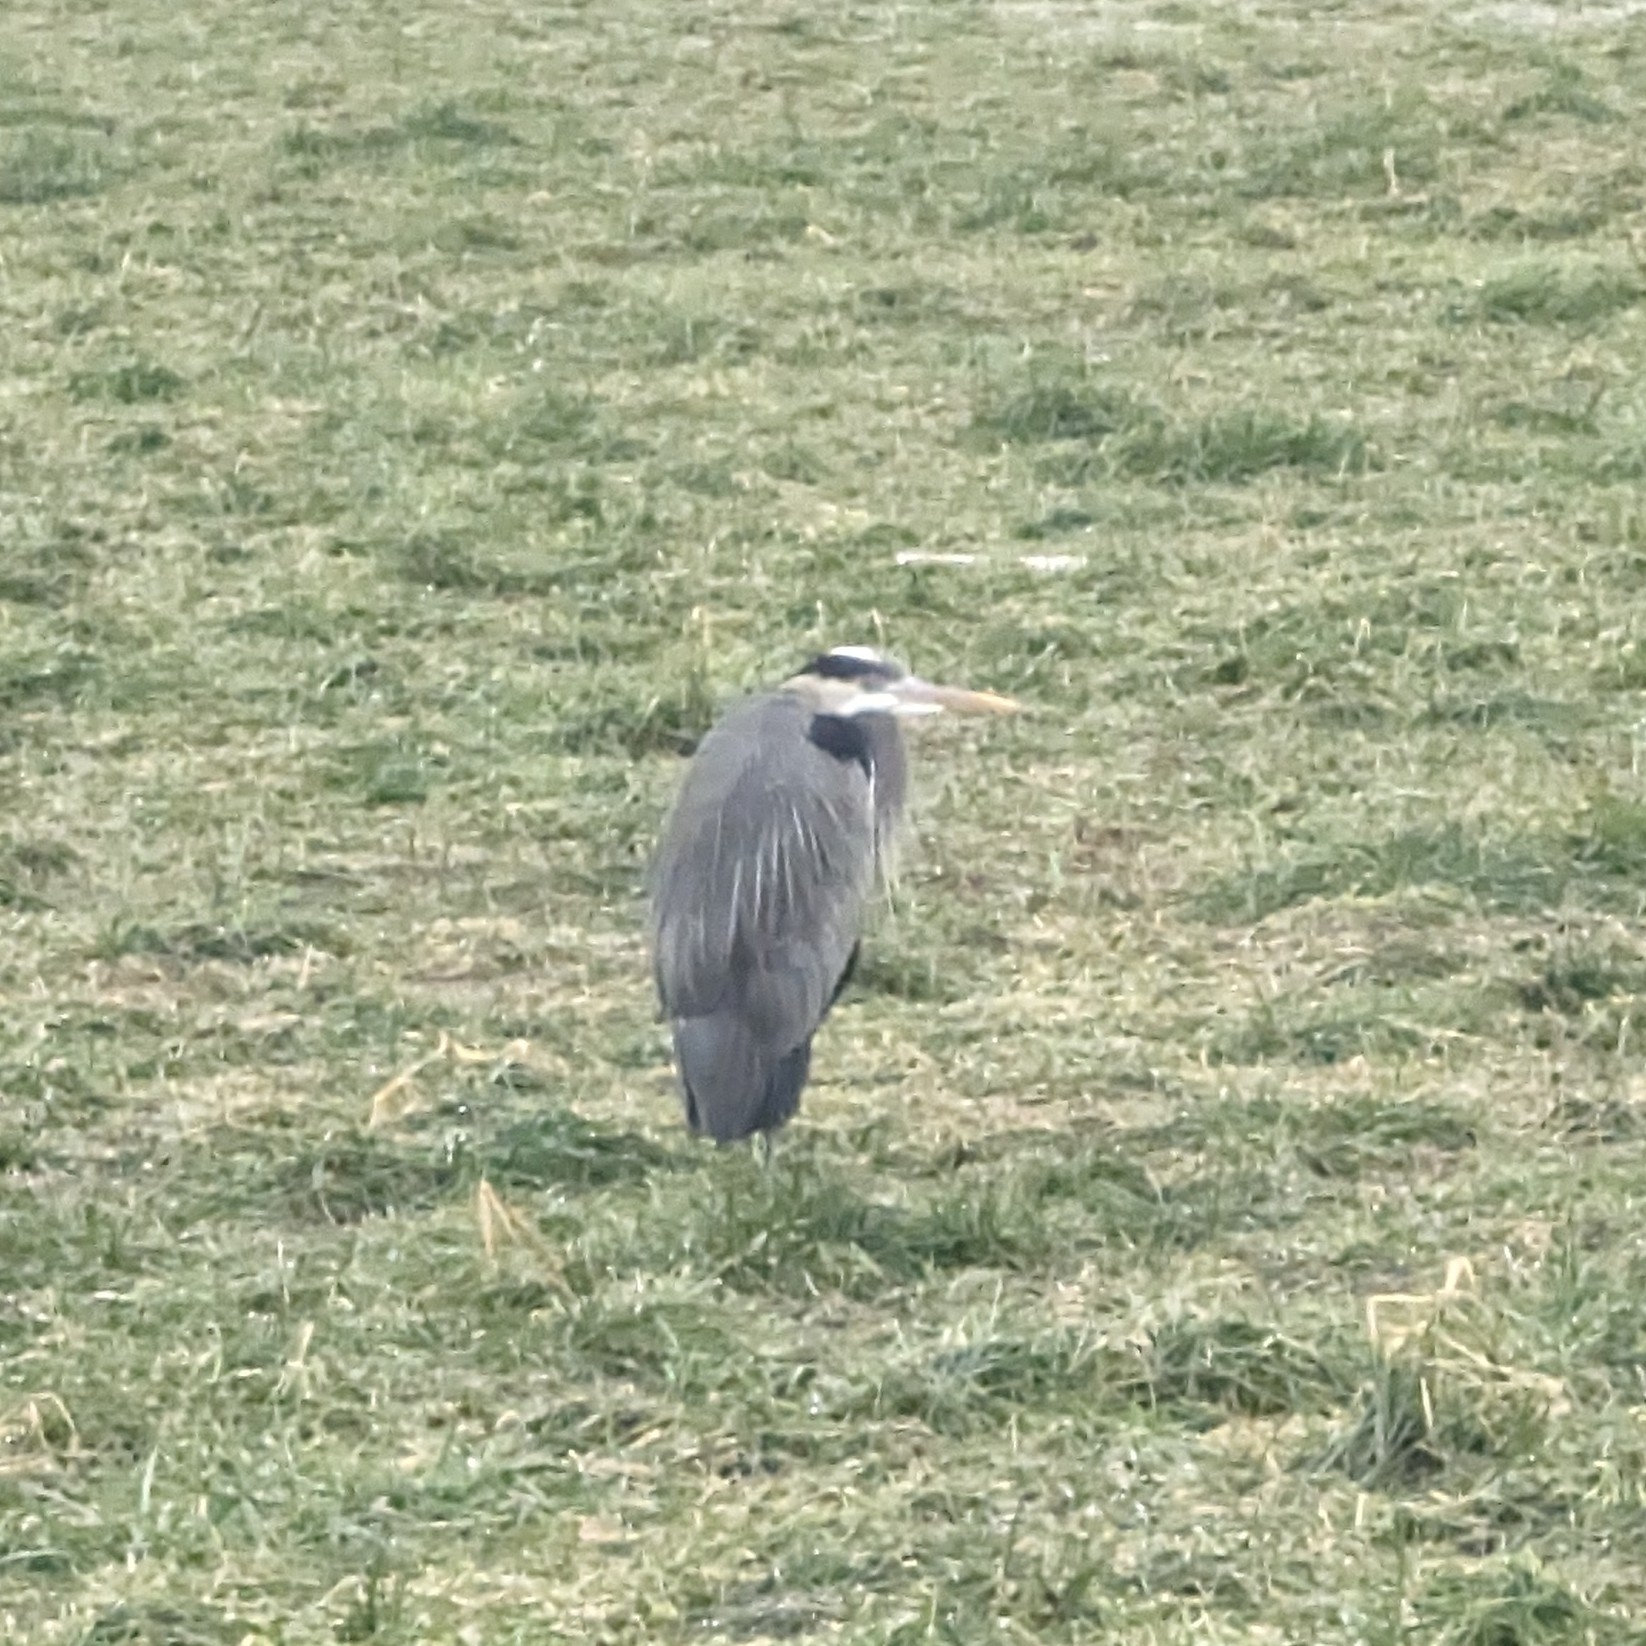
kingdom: Animalia
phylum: Chordata
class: Aves
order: Pelecaniformes
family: Ardeidae
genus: Ardea
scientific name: Ardea herodias
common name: Great blue heron
